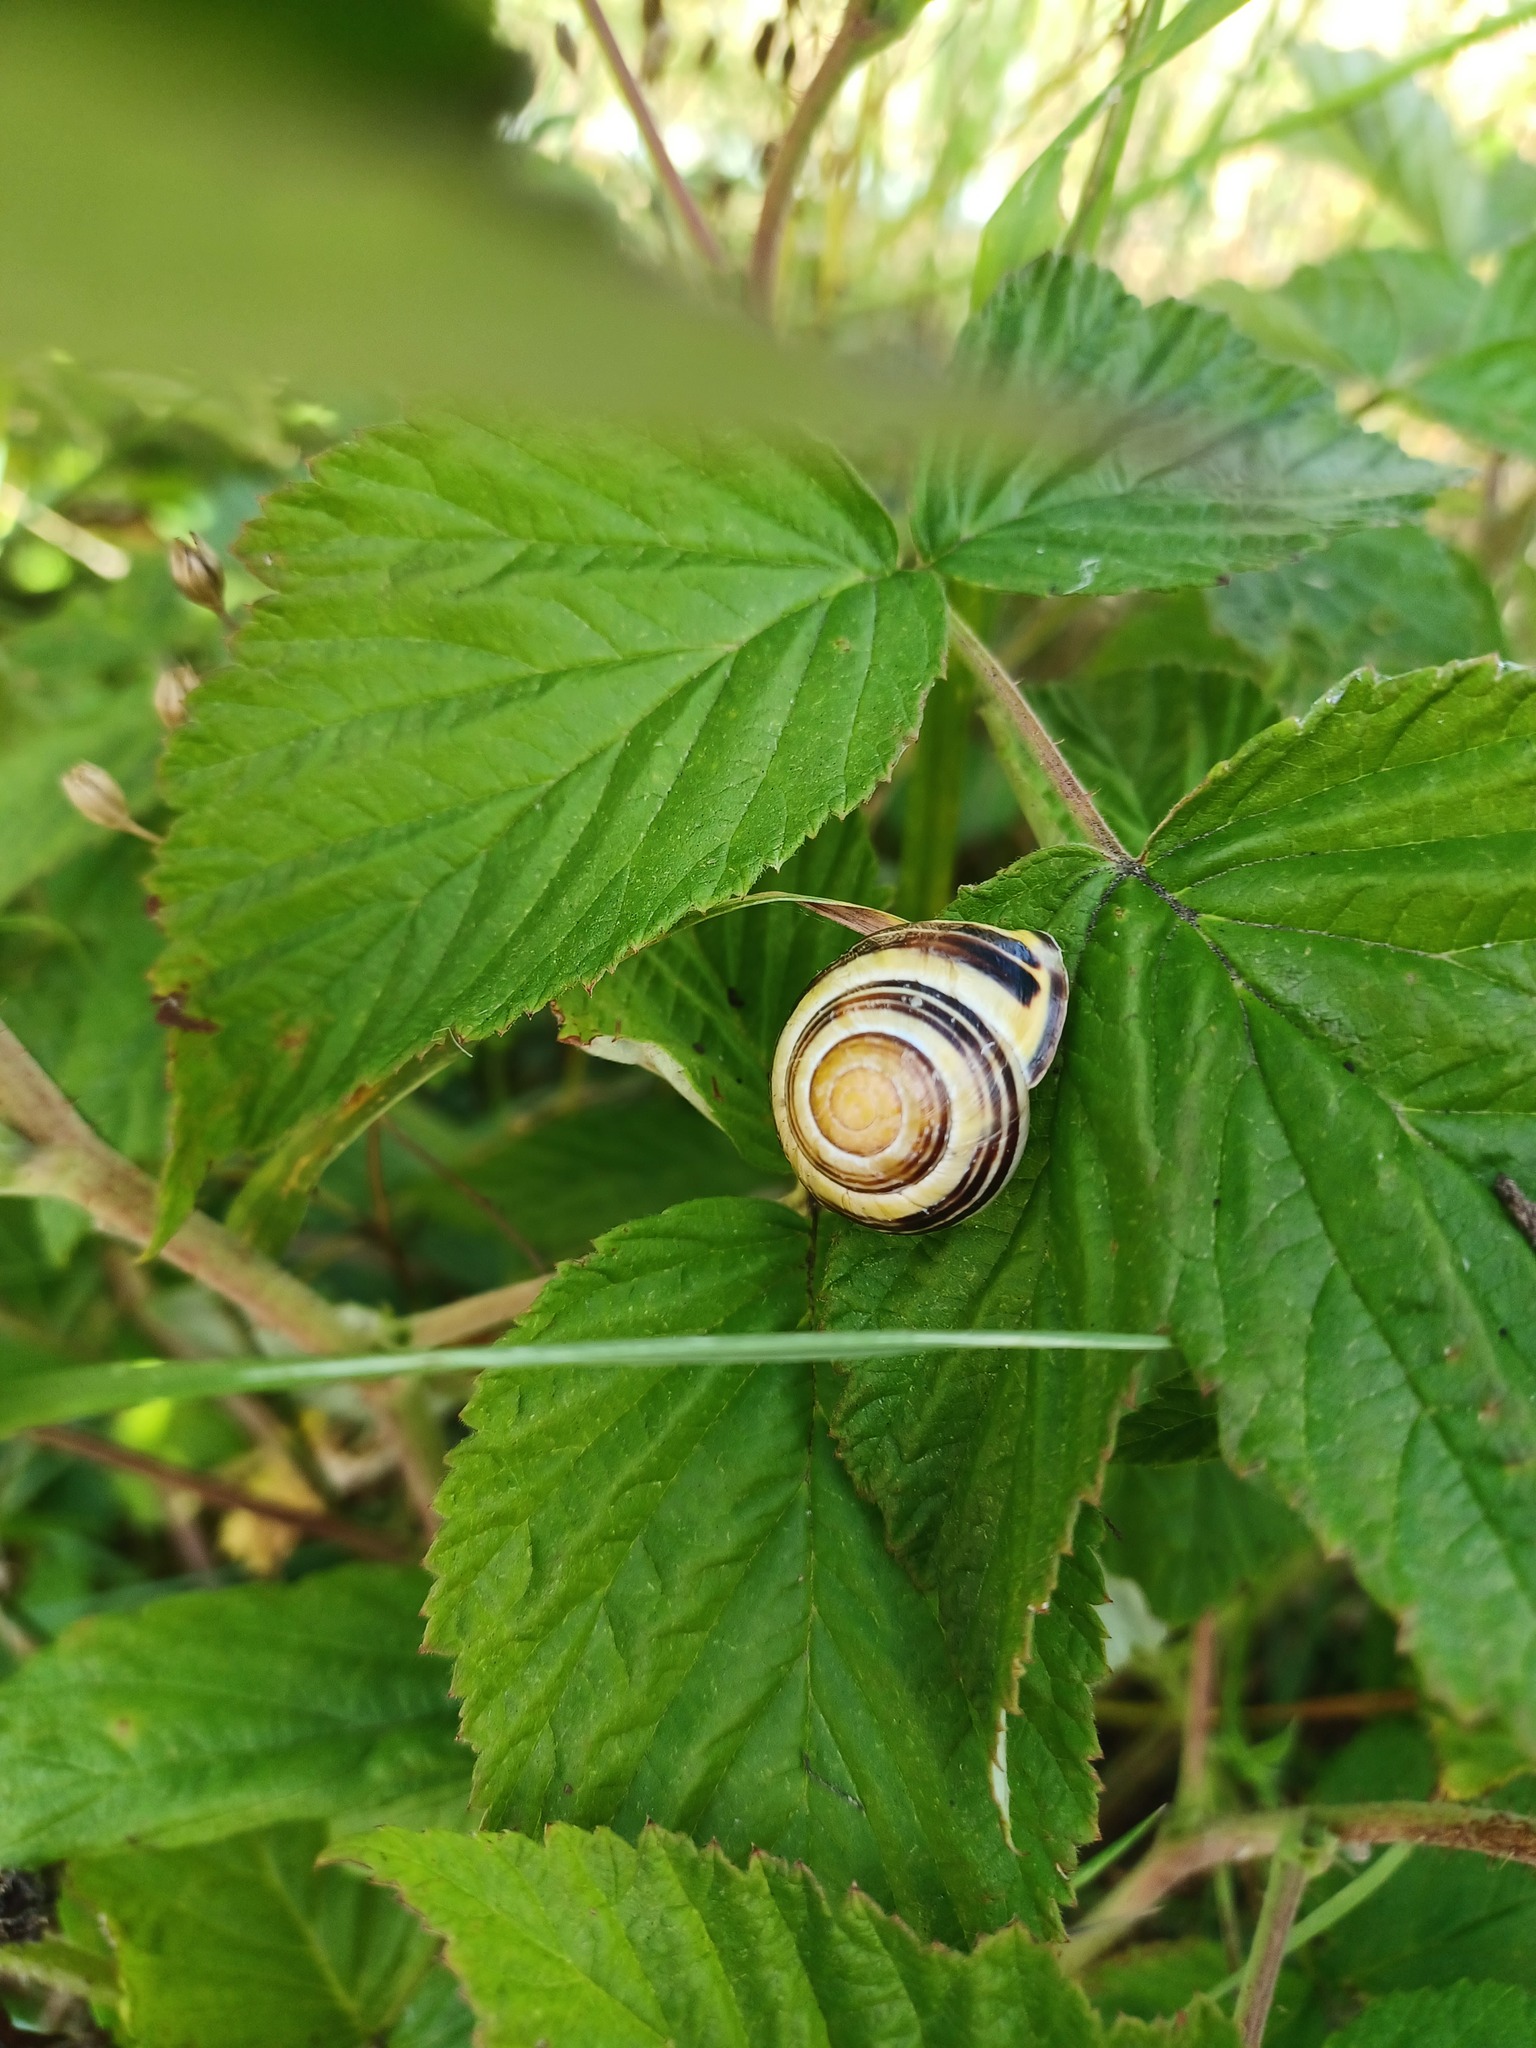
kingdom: Animalia
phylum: Mollusca
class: Gastropoda
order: Stylommatophora
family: Helicidae
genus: Cepaea
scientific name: Cepaea nemoralis
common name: Grovesnail
